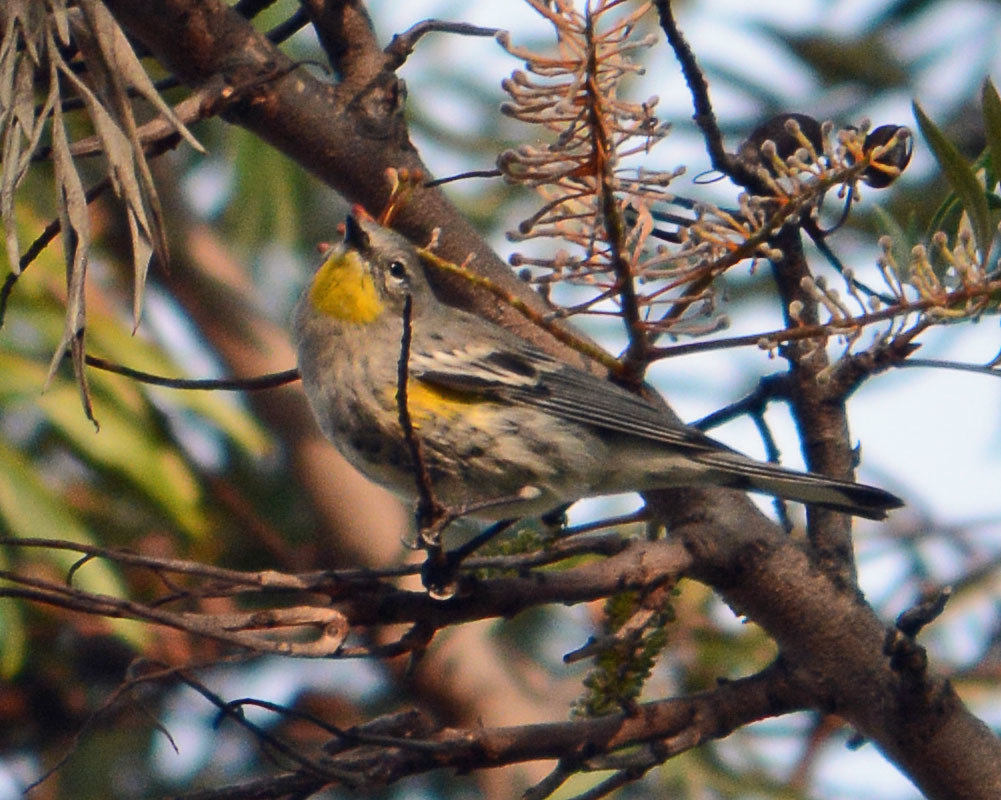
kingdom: Animalia
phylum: Chordata
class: Aves
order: Passeriformes
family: Parulidae
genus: Setophaga
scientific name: Setophaga auduboni
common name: Audubon's warbler
